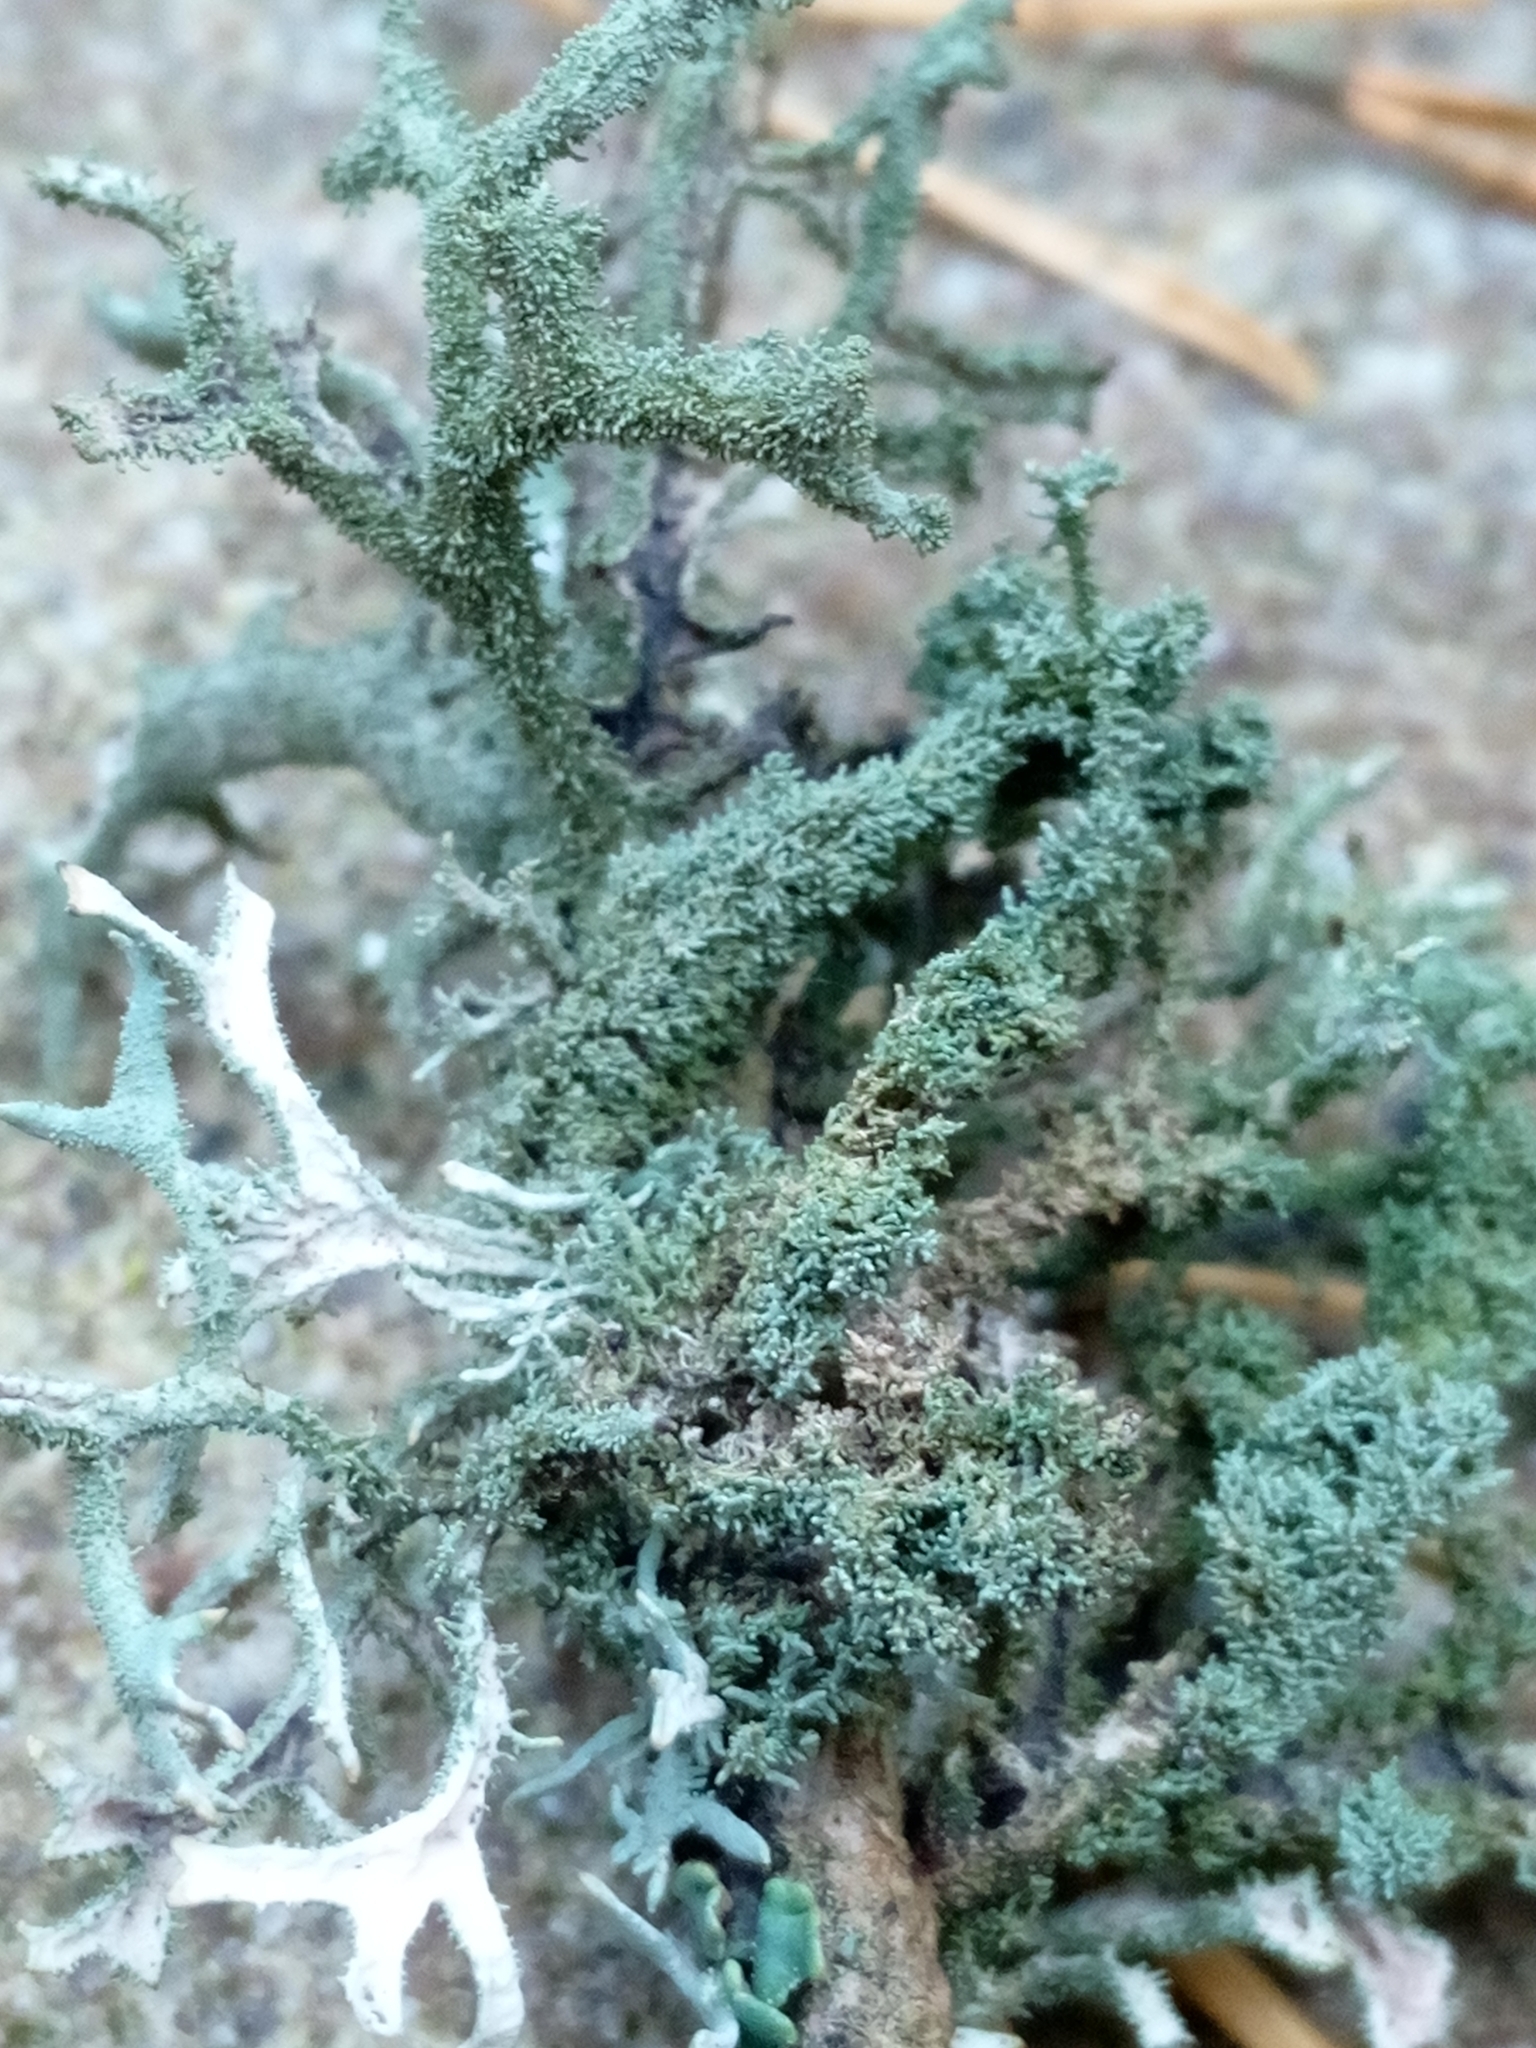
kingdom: Fungi
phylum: Ascomycota
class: Lecanoromycetes
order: Lecanorales
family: Parmeliaceae
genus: Pseudevernia
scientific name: Pseudevernia furfuracea
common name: Tree moss
